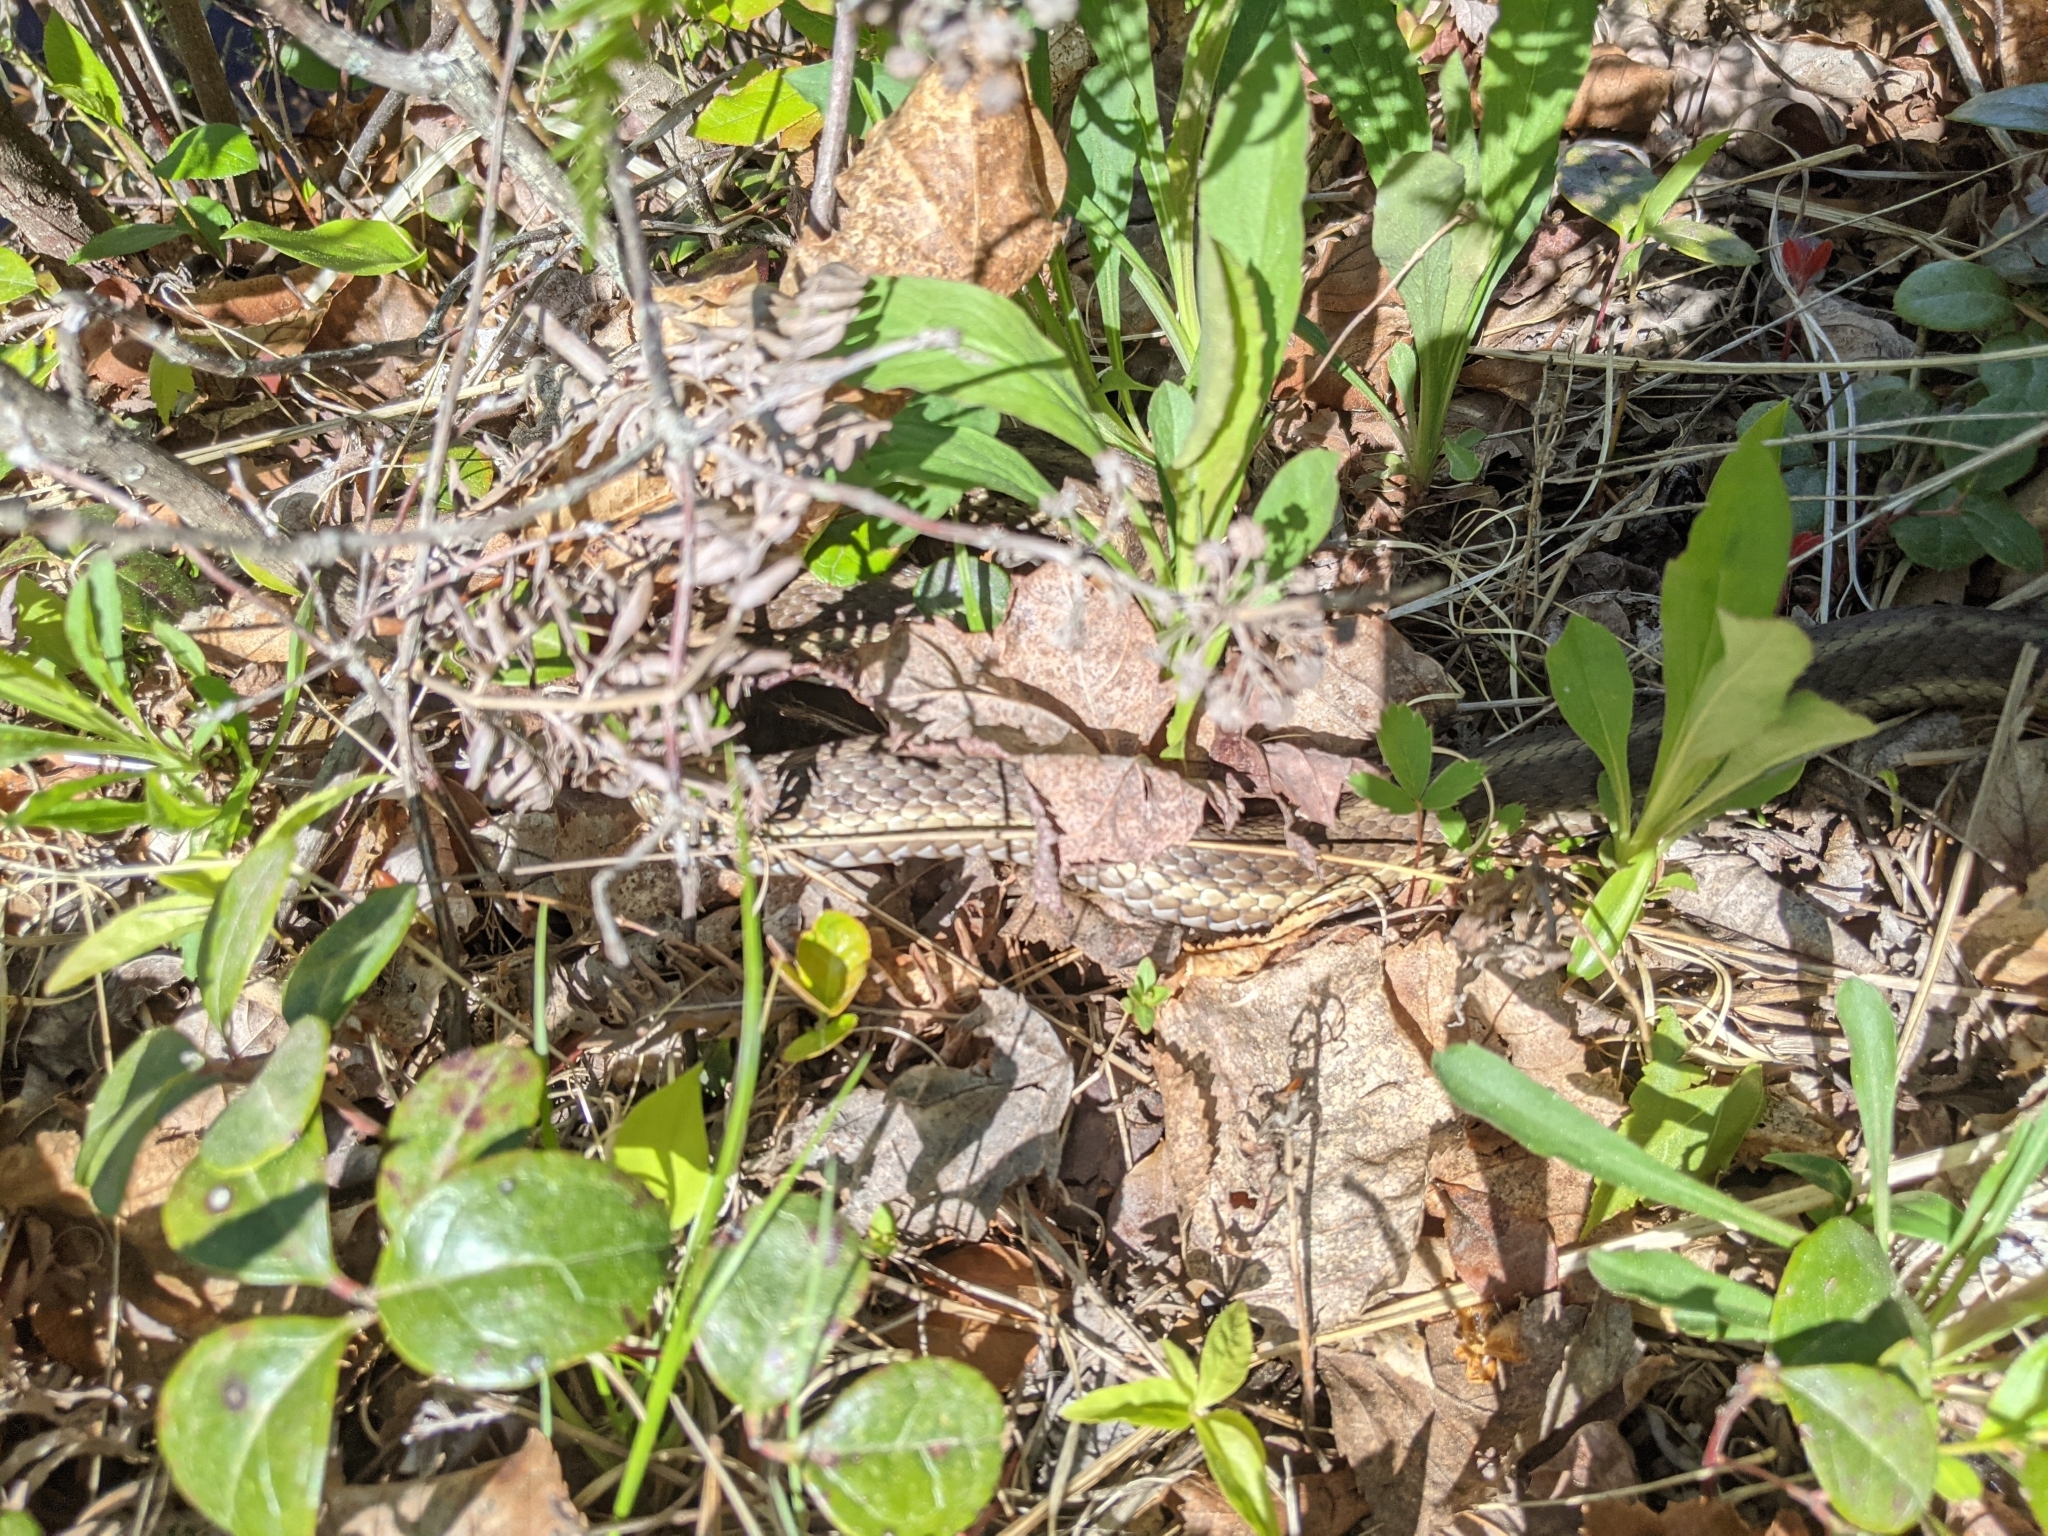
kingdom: Animalia
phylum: Chordata
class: Squamata
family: Colubridae
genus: Thamnophis
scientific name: Thamnophis sirtalis
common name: Common garter snake
